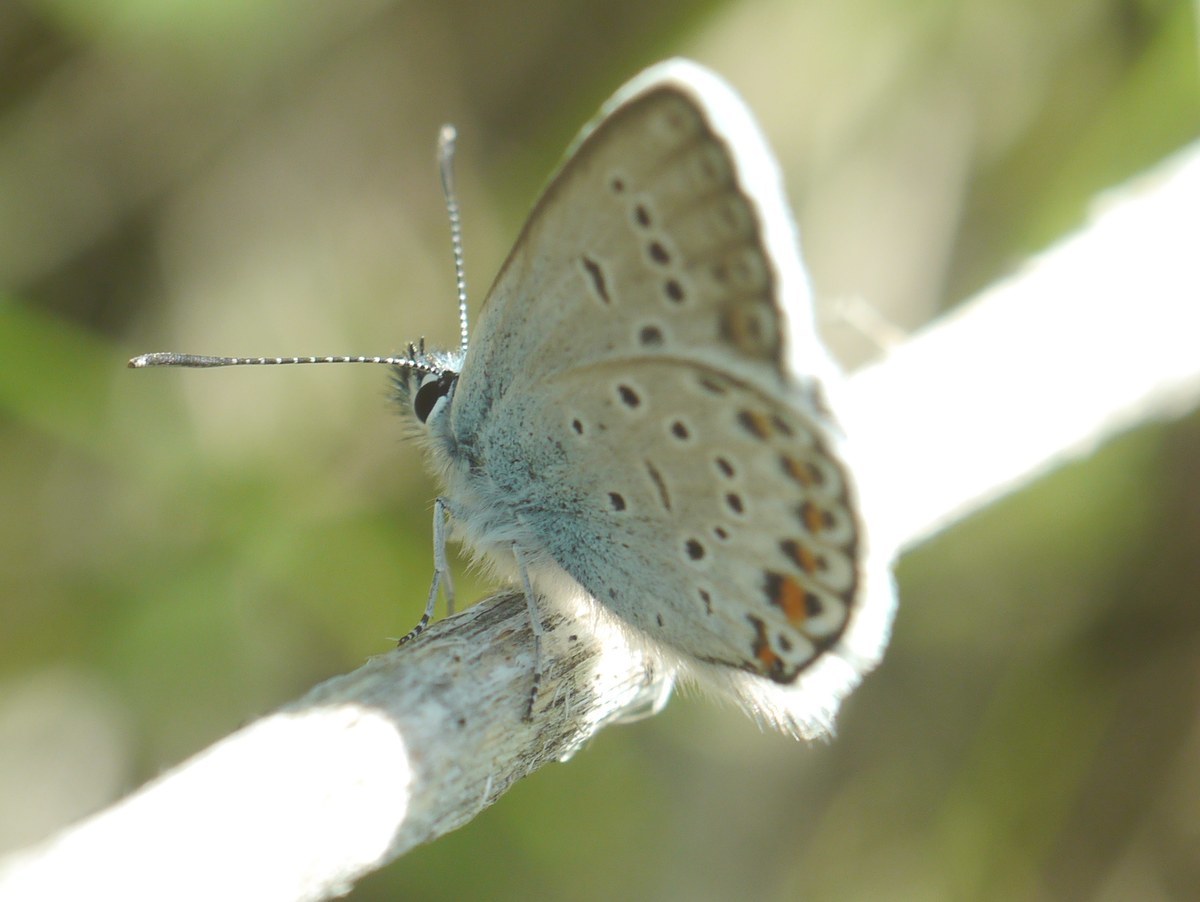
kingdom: Animalia
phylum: Arthropoda
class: Insecta
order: Lepidoptera
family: Lycaenidae
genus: Plebejus
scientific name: Plebejus argus
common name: Silver-studded blue
